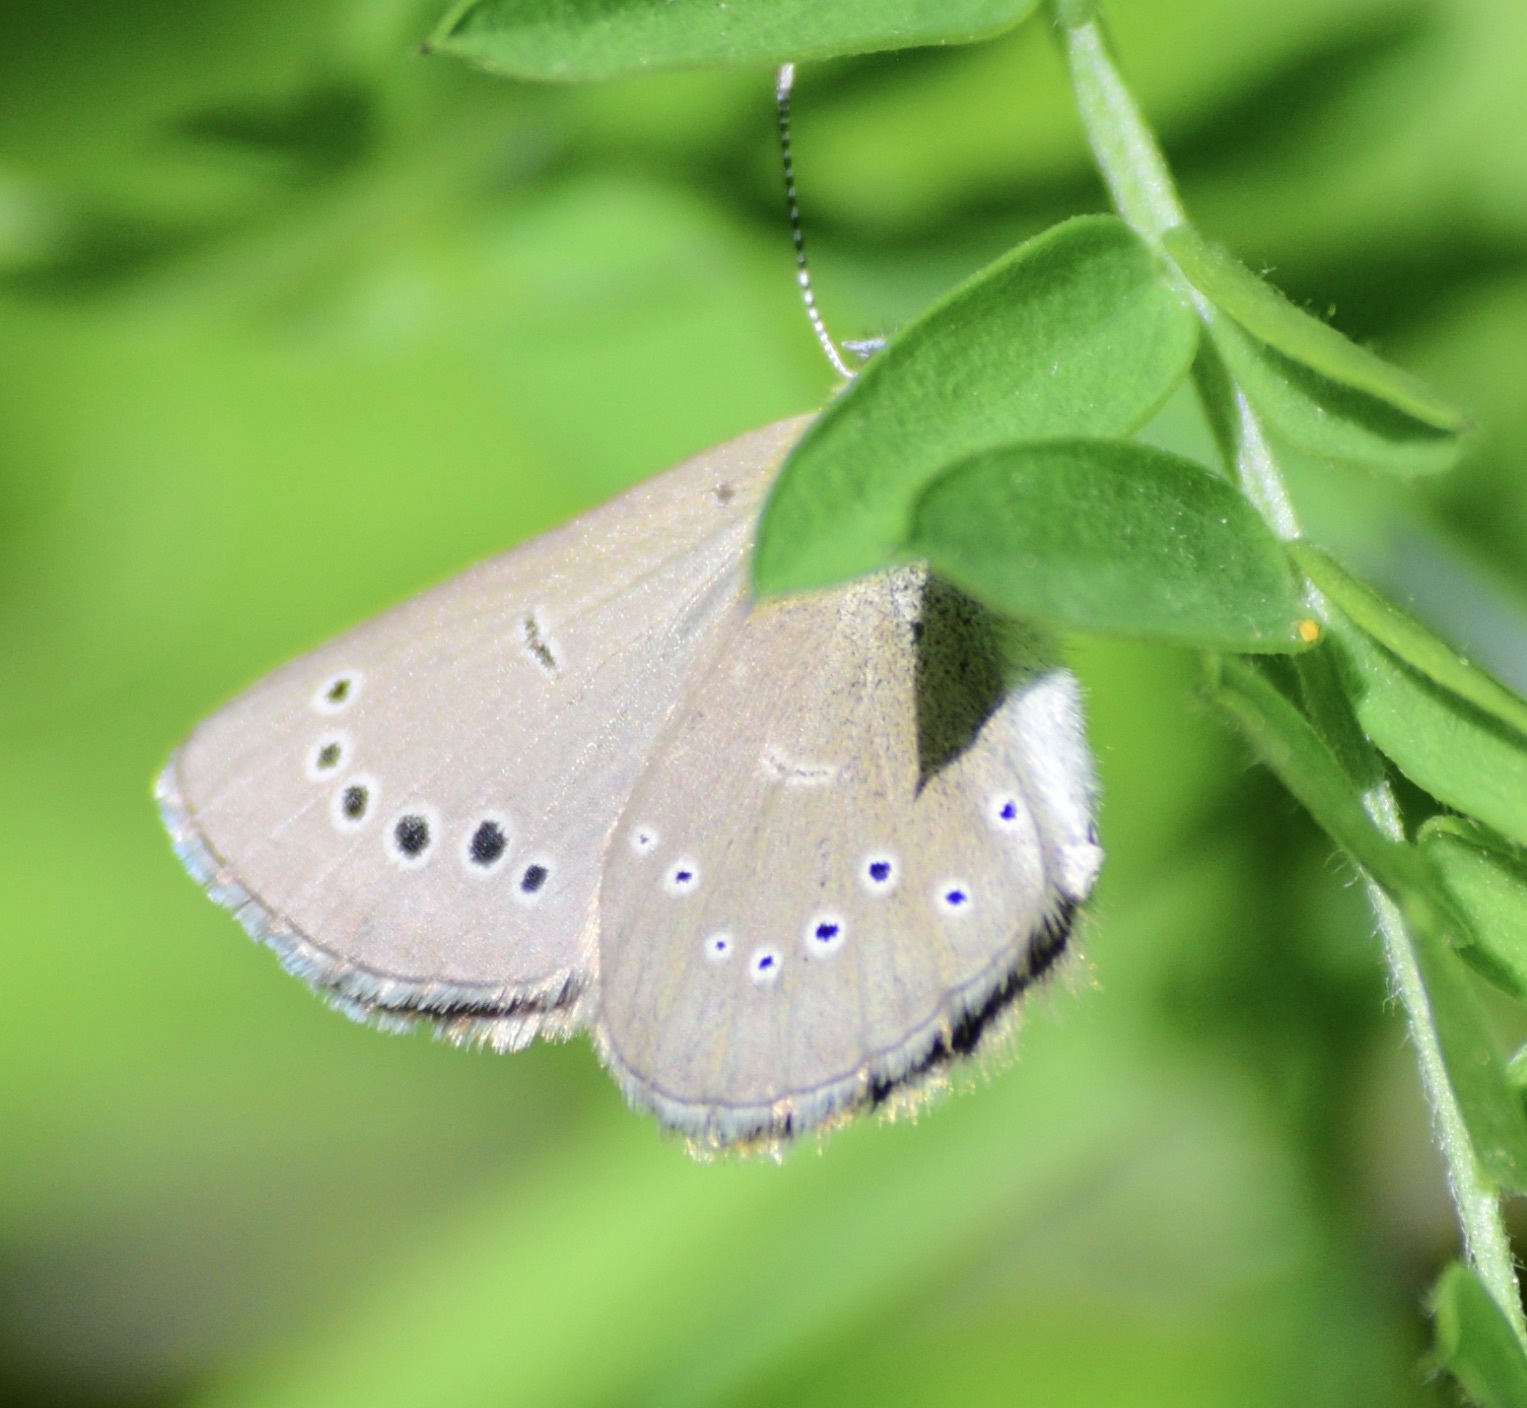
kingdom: Animalia
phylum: Arthropoda
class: Insecta
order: Lepidoptera
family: Lycaenidae
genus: Glaucopsyche
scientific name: Glaucopsyche lygdamus
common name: Silvery blue
